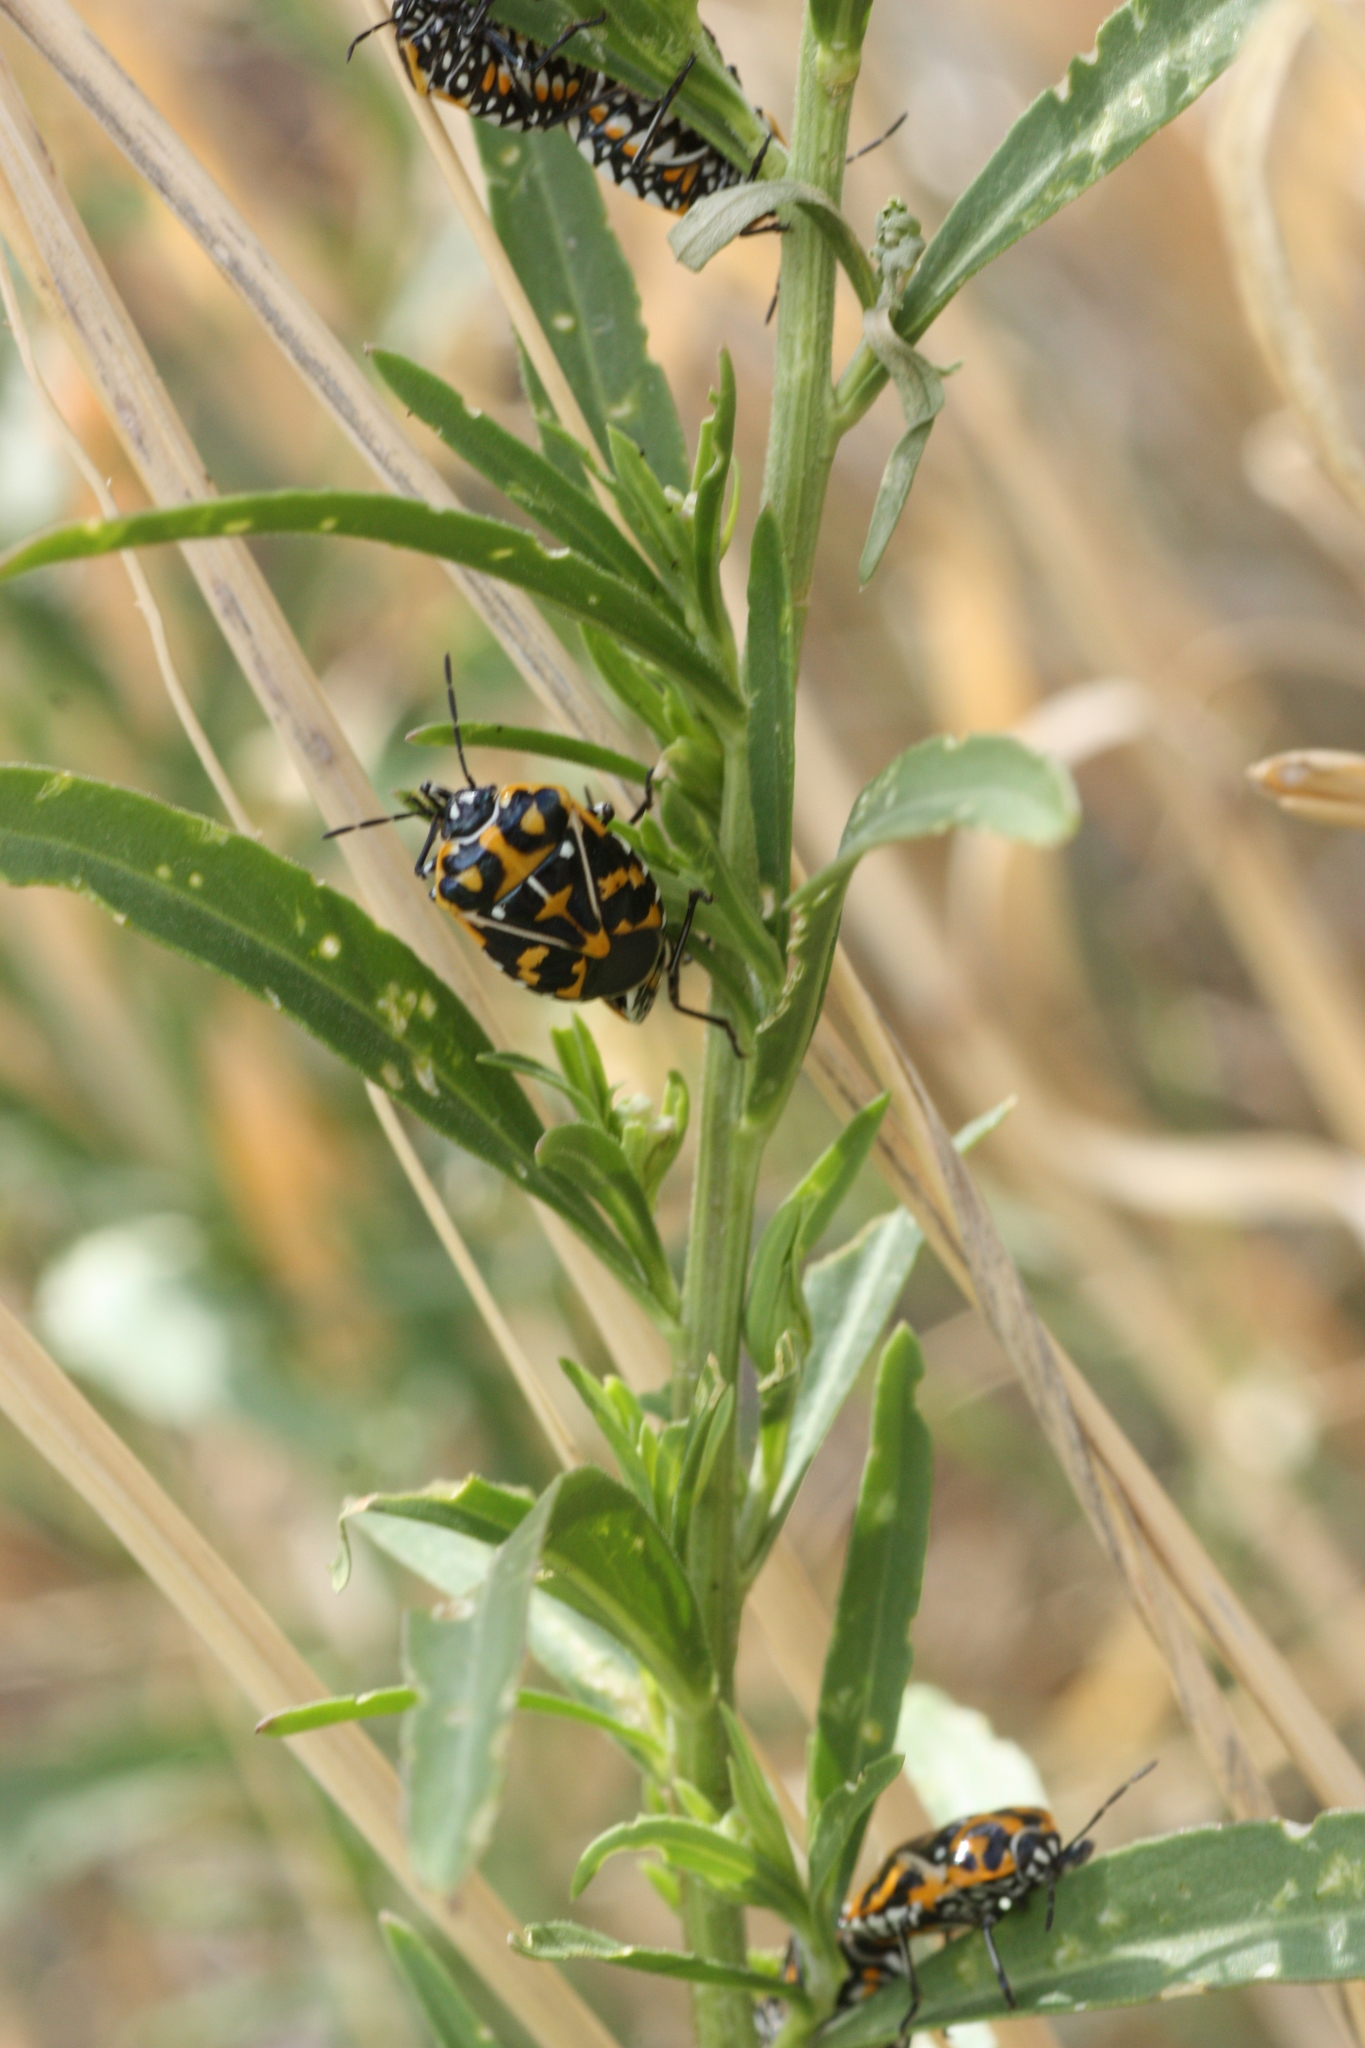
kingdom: Animalia
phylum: Arthropoda
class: Insecta
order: Hemiptera
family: Pentatomidae
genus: Murgantia
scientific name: Murgantia histrionica
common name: Harlequin bug
